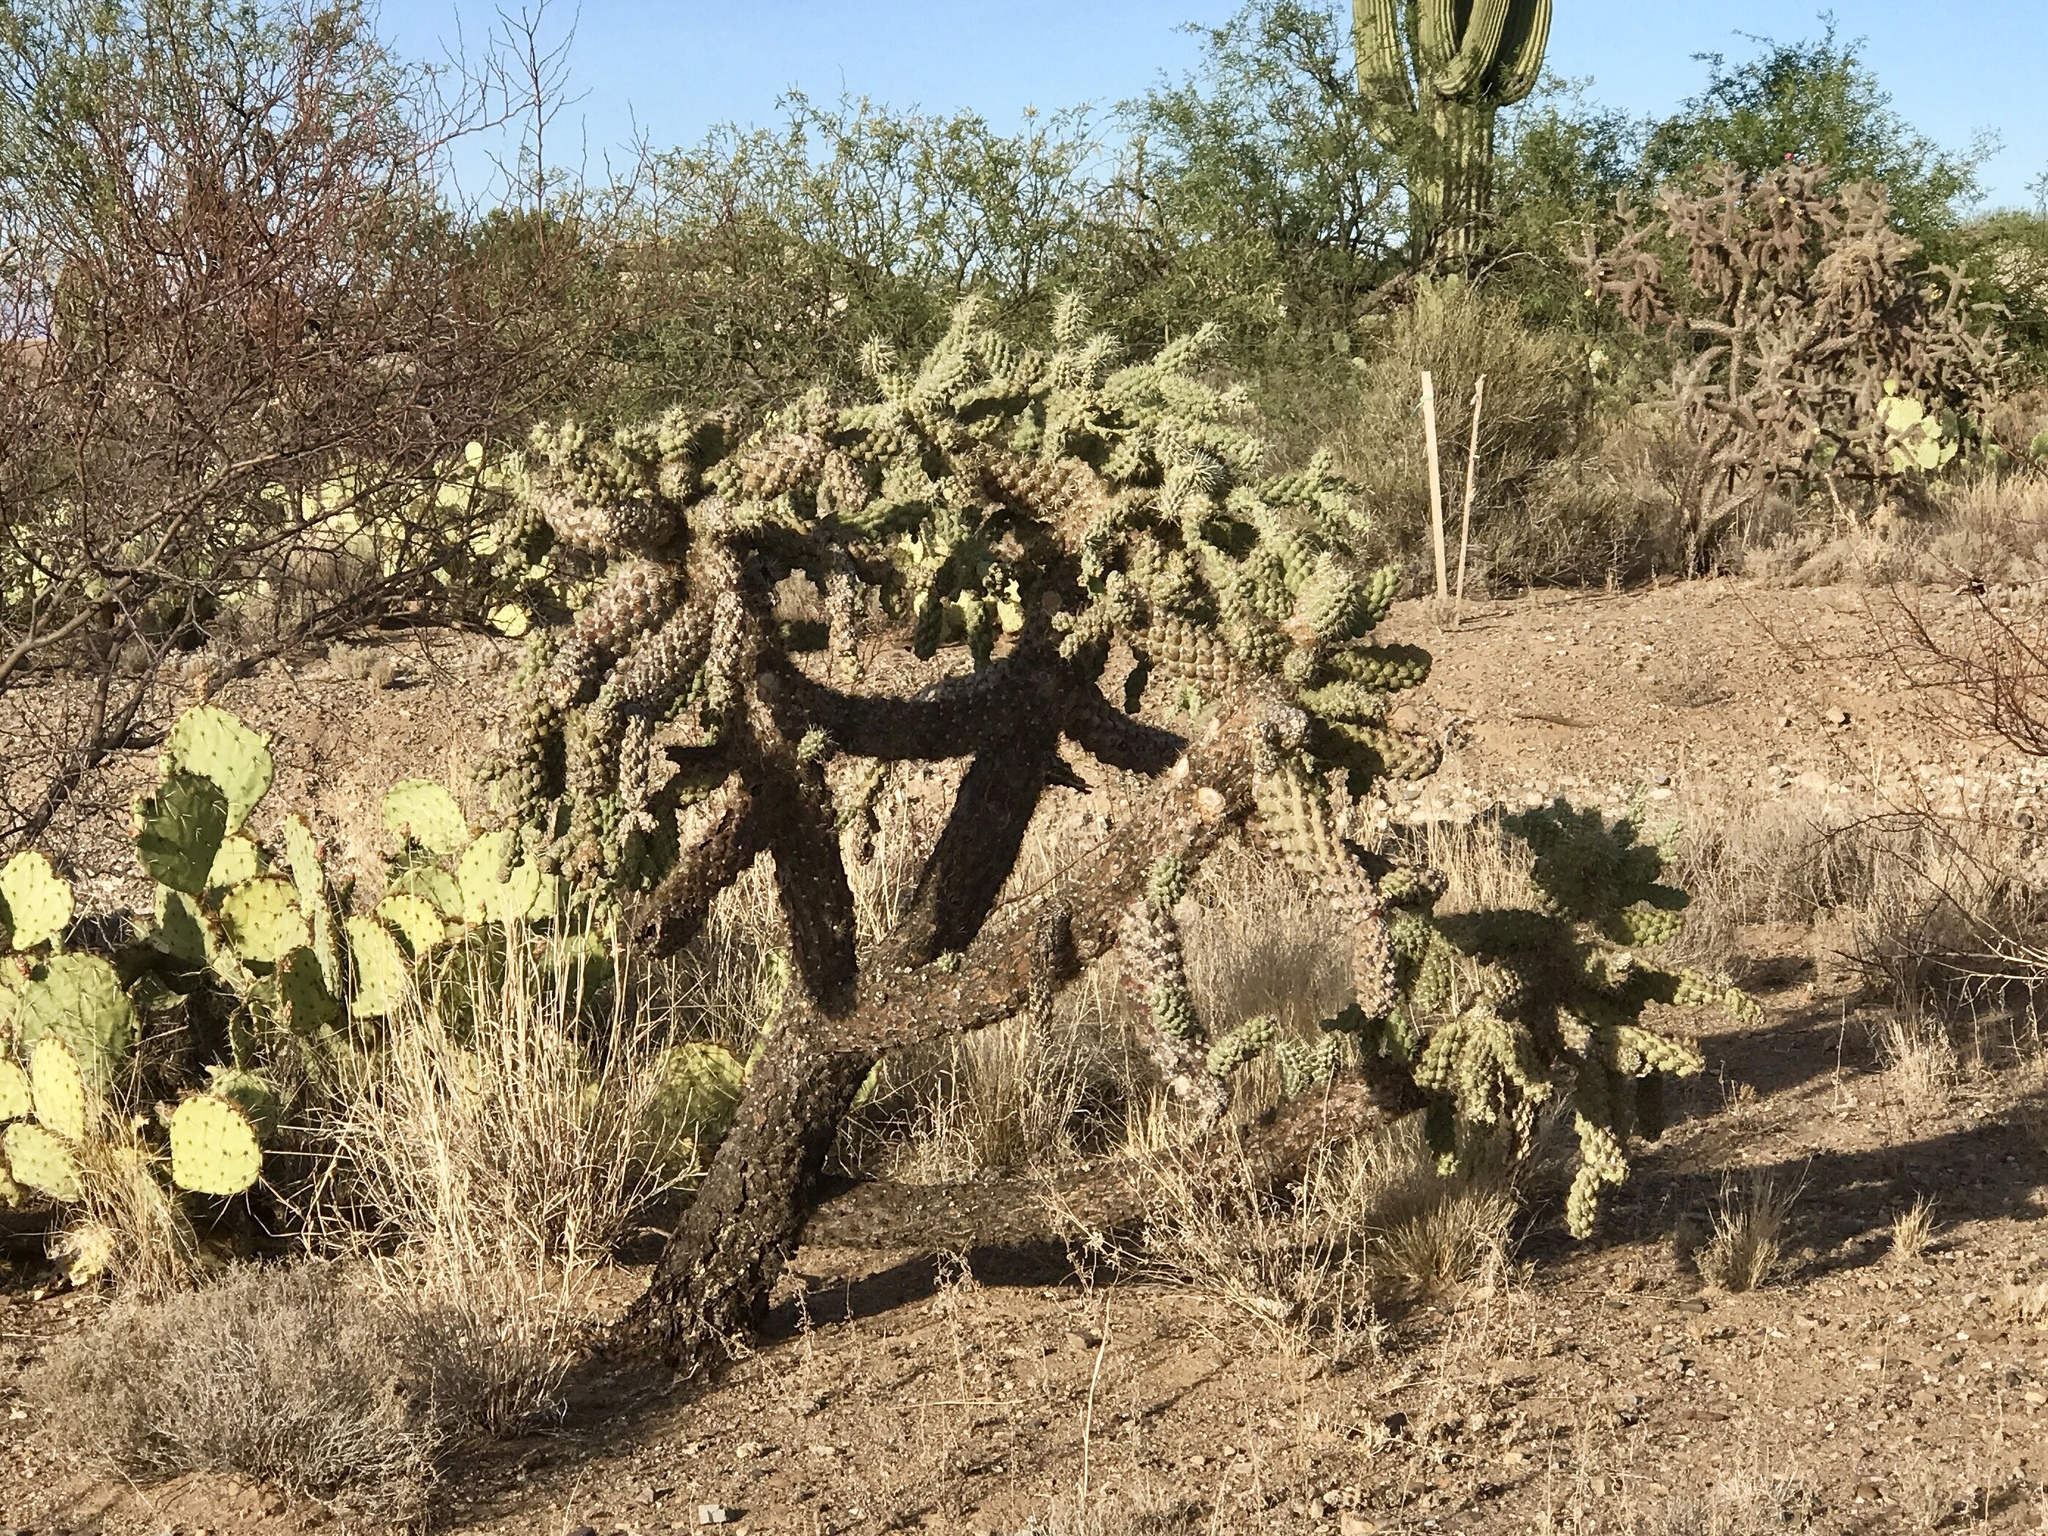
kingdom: Plantae
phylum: Tracheophyta
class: Magnoliopsida
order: Caryophyllales
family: Cactaceae
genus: Cylindropuntia
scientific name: Cylindropuntia fulgida
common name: Jumping cholla
